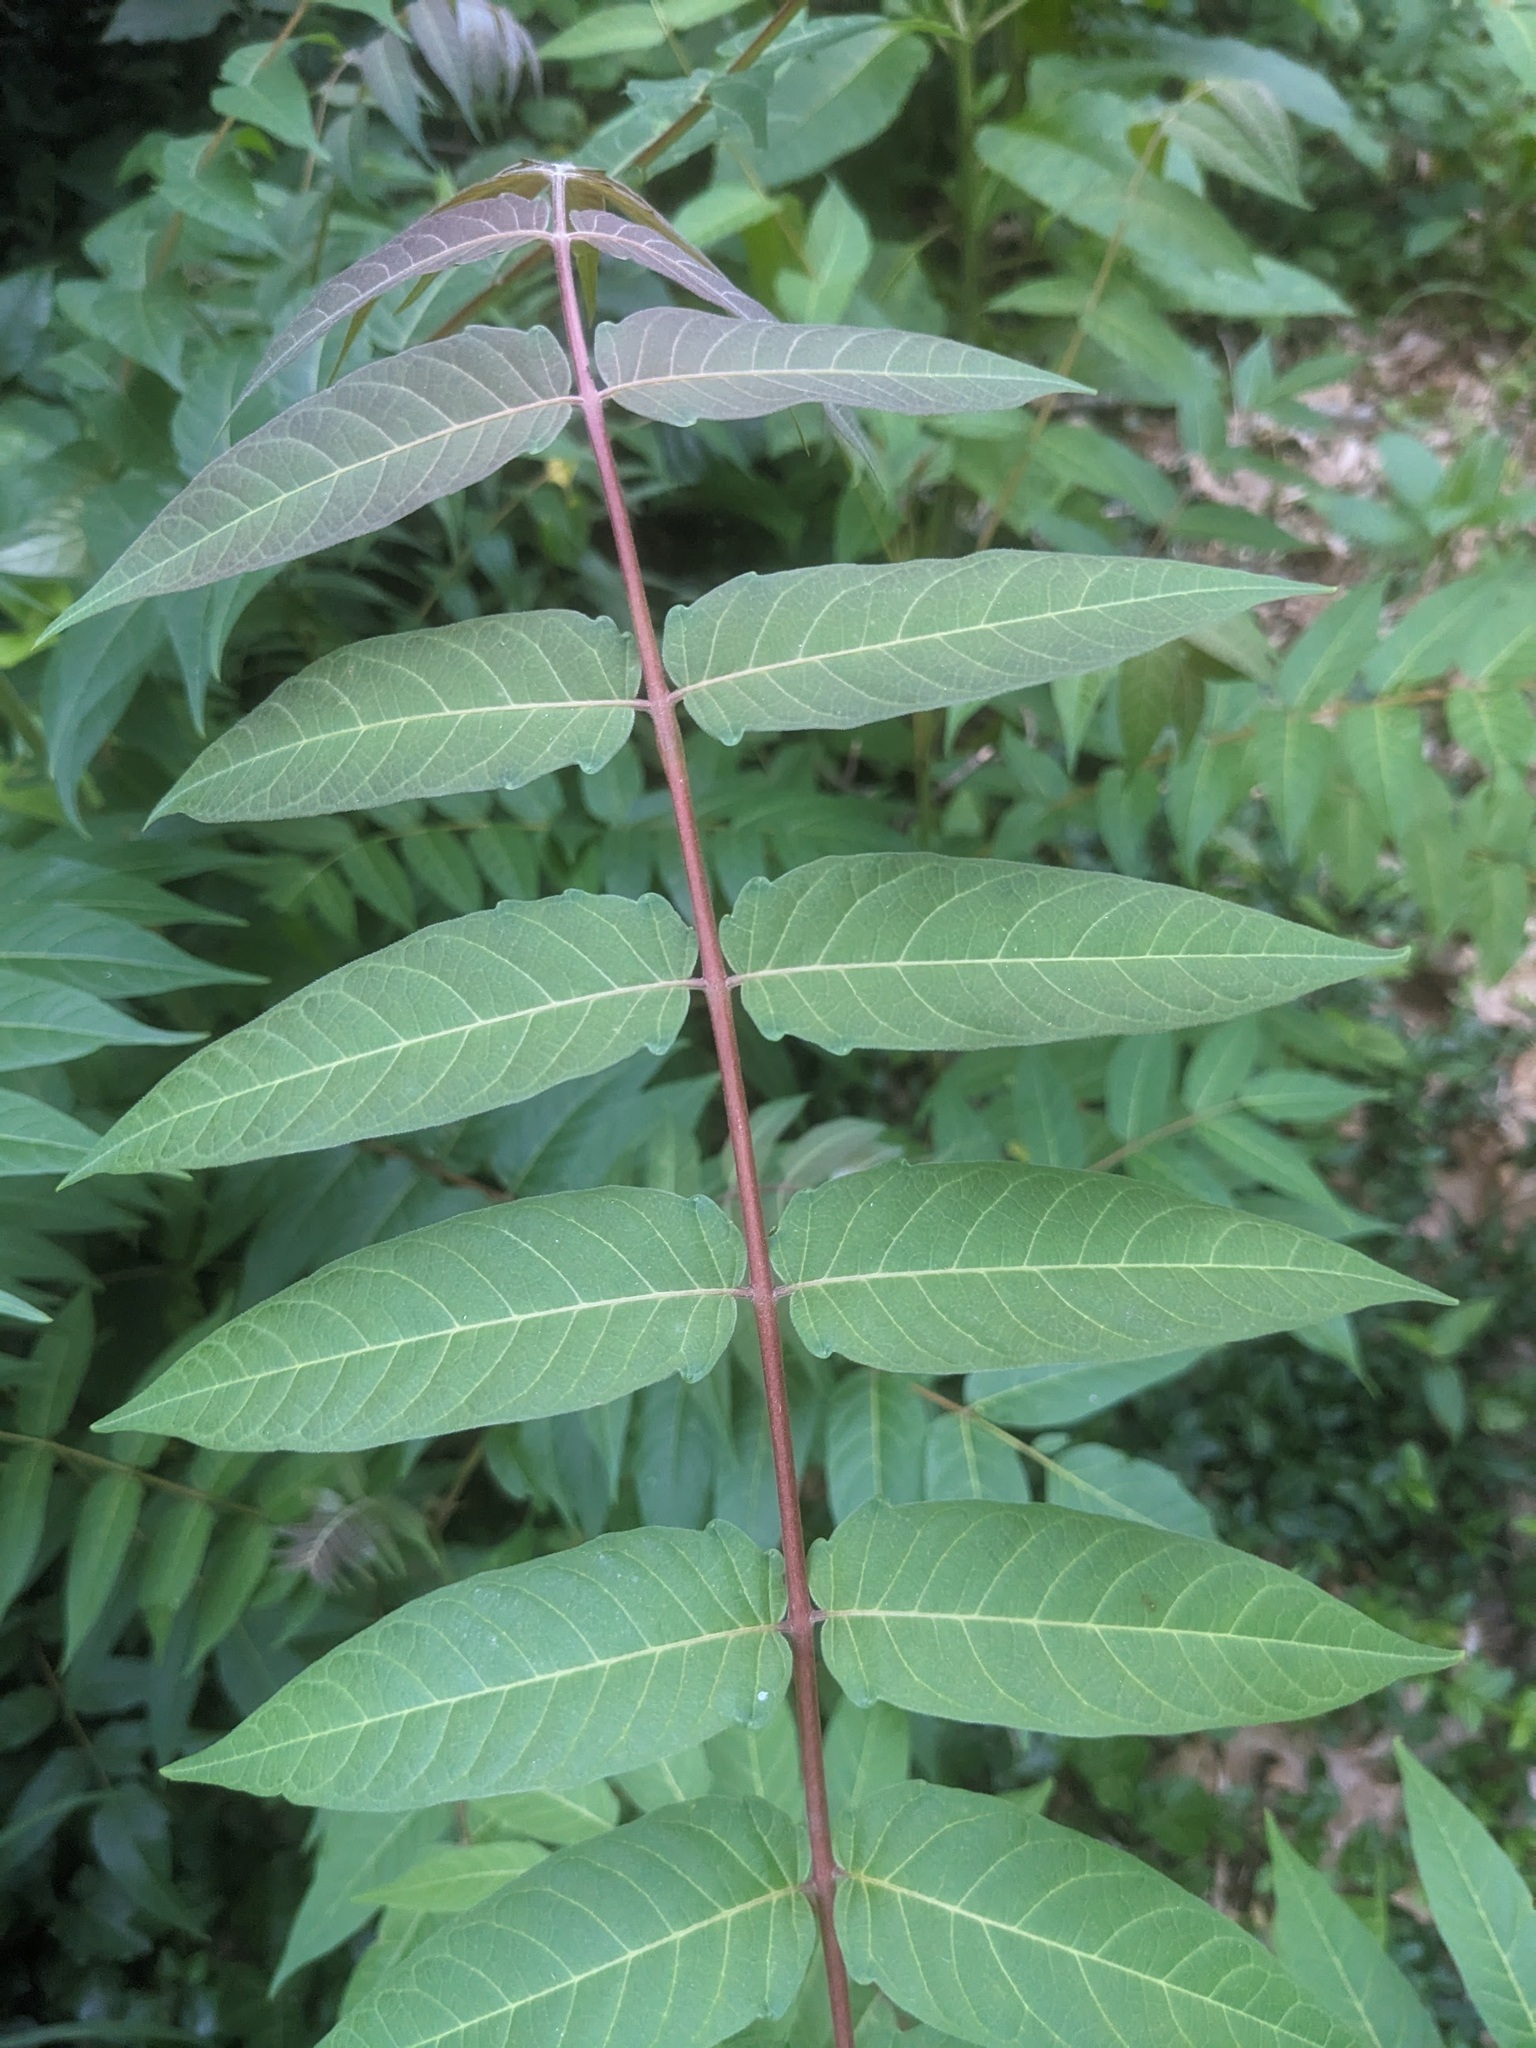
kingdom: Plantae
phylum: Tracheophyta
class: Magnoliopsida
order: Sapindales
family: Simaroubaceae
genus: Ailanthus
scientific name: Ailanthus altissima
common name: Tree-of-heaven
